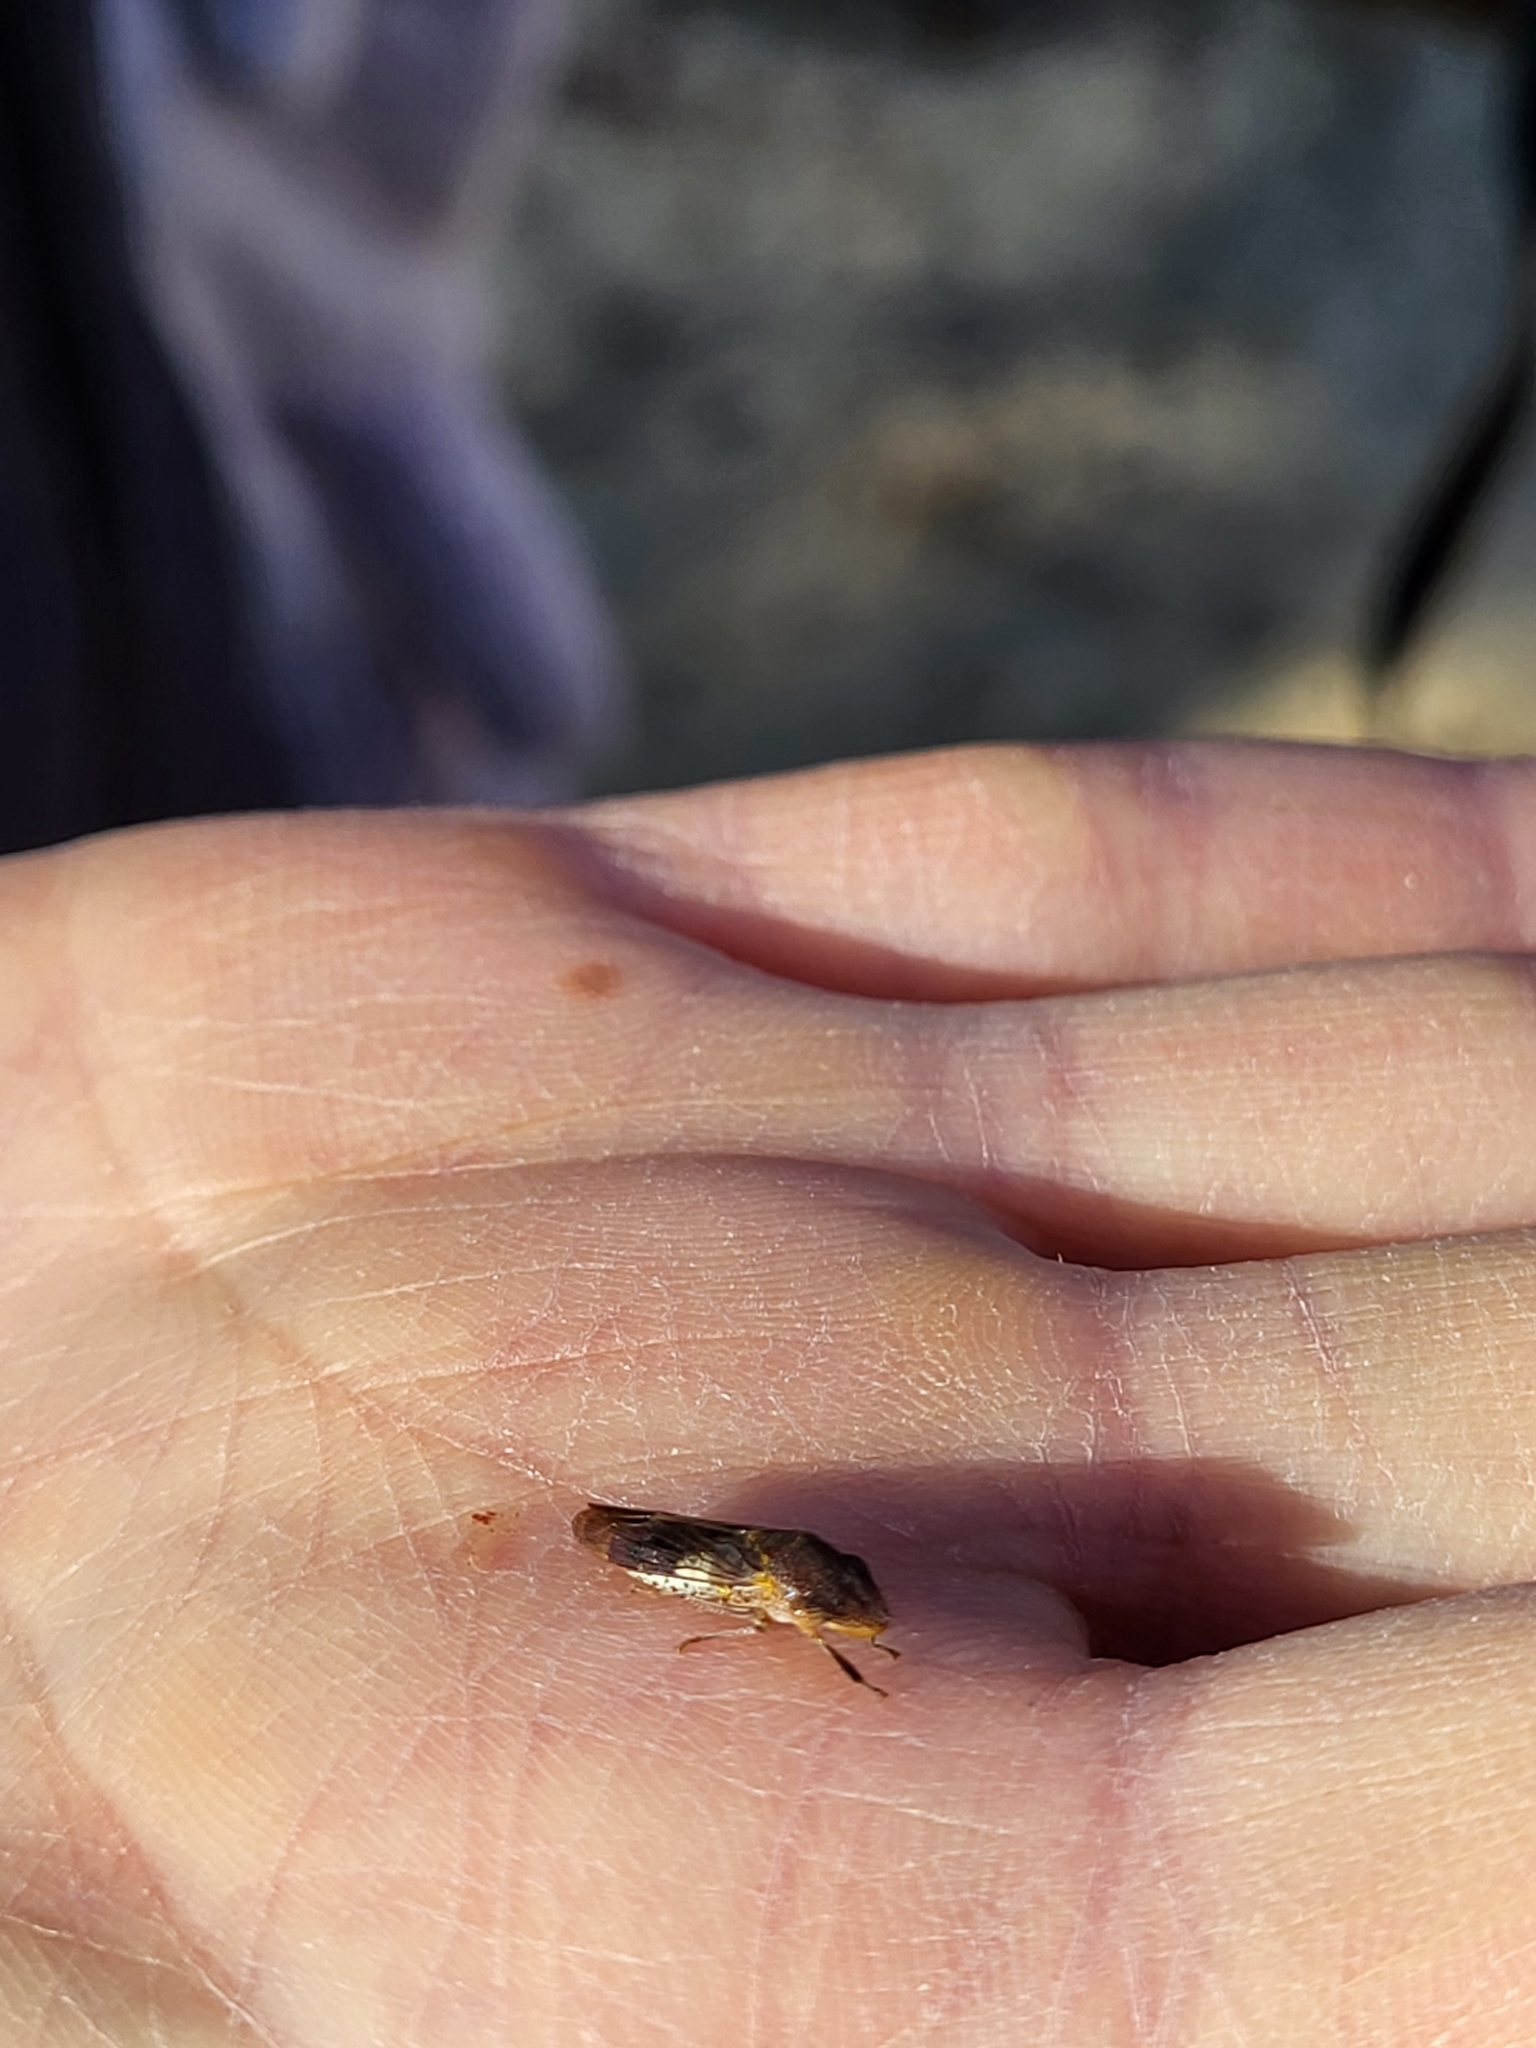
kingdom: Animalia
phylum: Arthropoda
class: Insecta
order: Hemiptera
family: Cicadellidae
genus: Homalodisca
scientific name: Homalodisca vitripennis
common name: Glassy-winged sharpshooter
